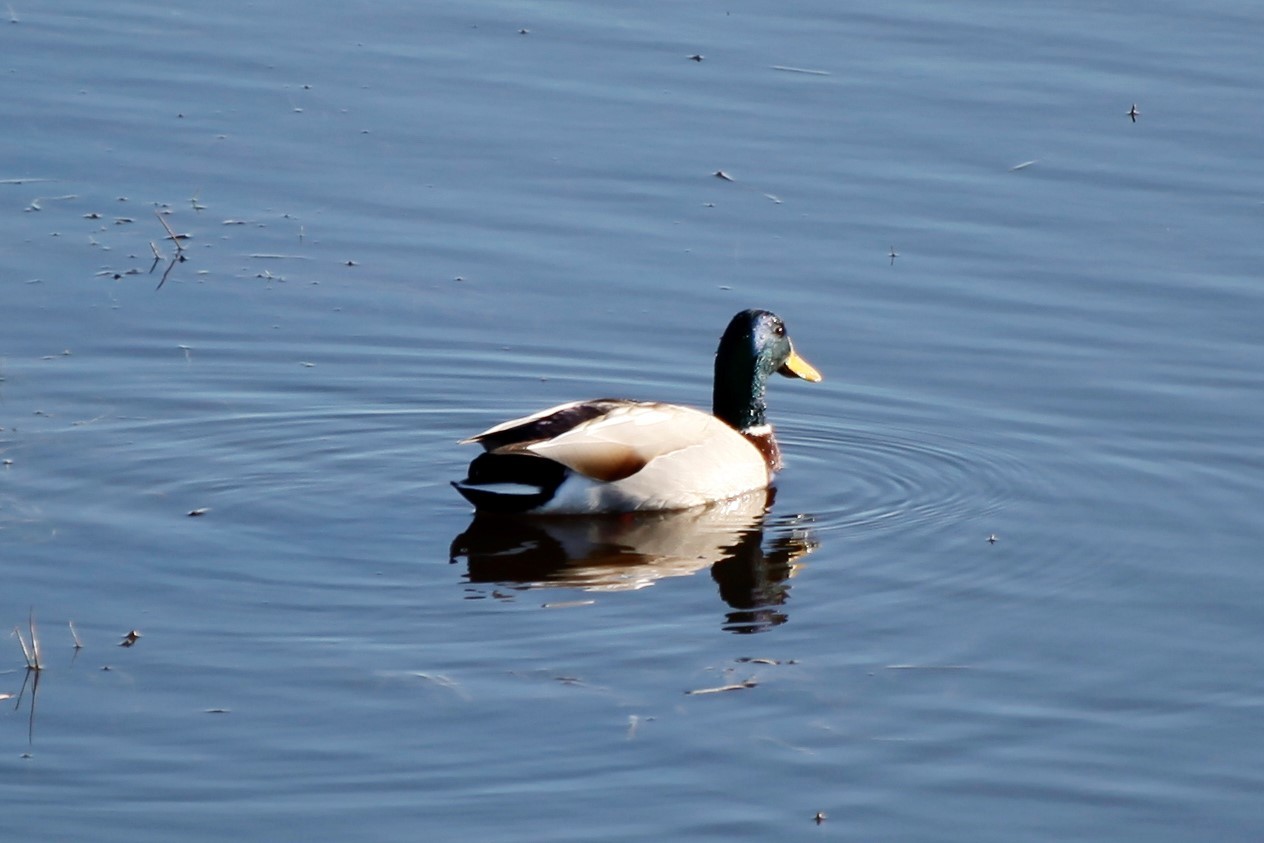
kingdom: Animalia
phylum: Chordata
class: Aves
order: Anseriformes
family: Anatidae
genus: Anas
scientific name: Anas platyrhynchos
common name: Mallard
